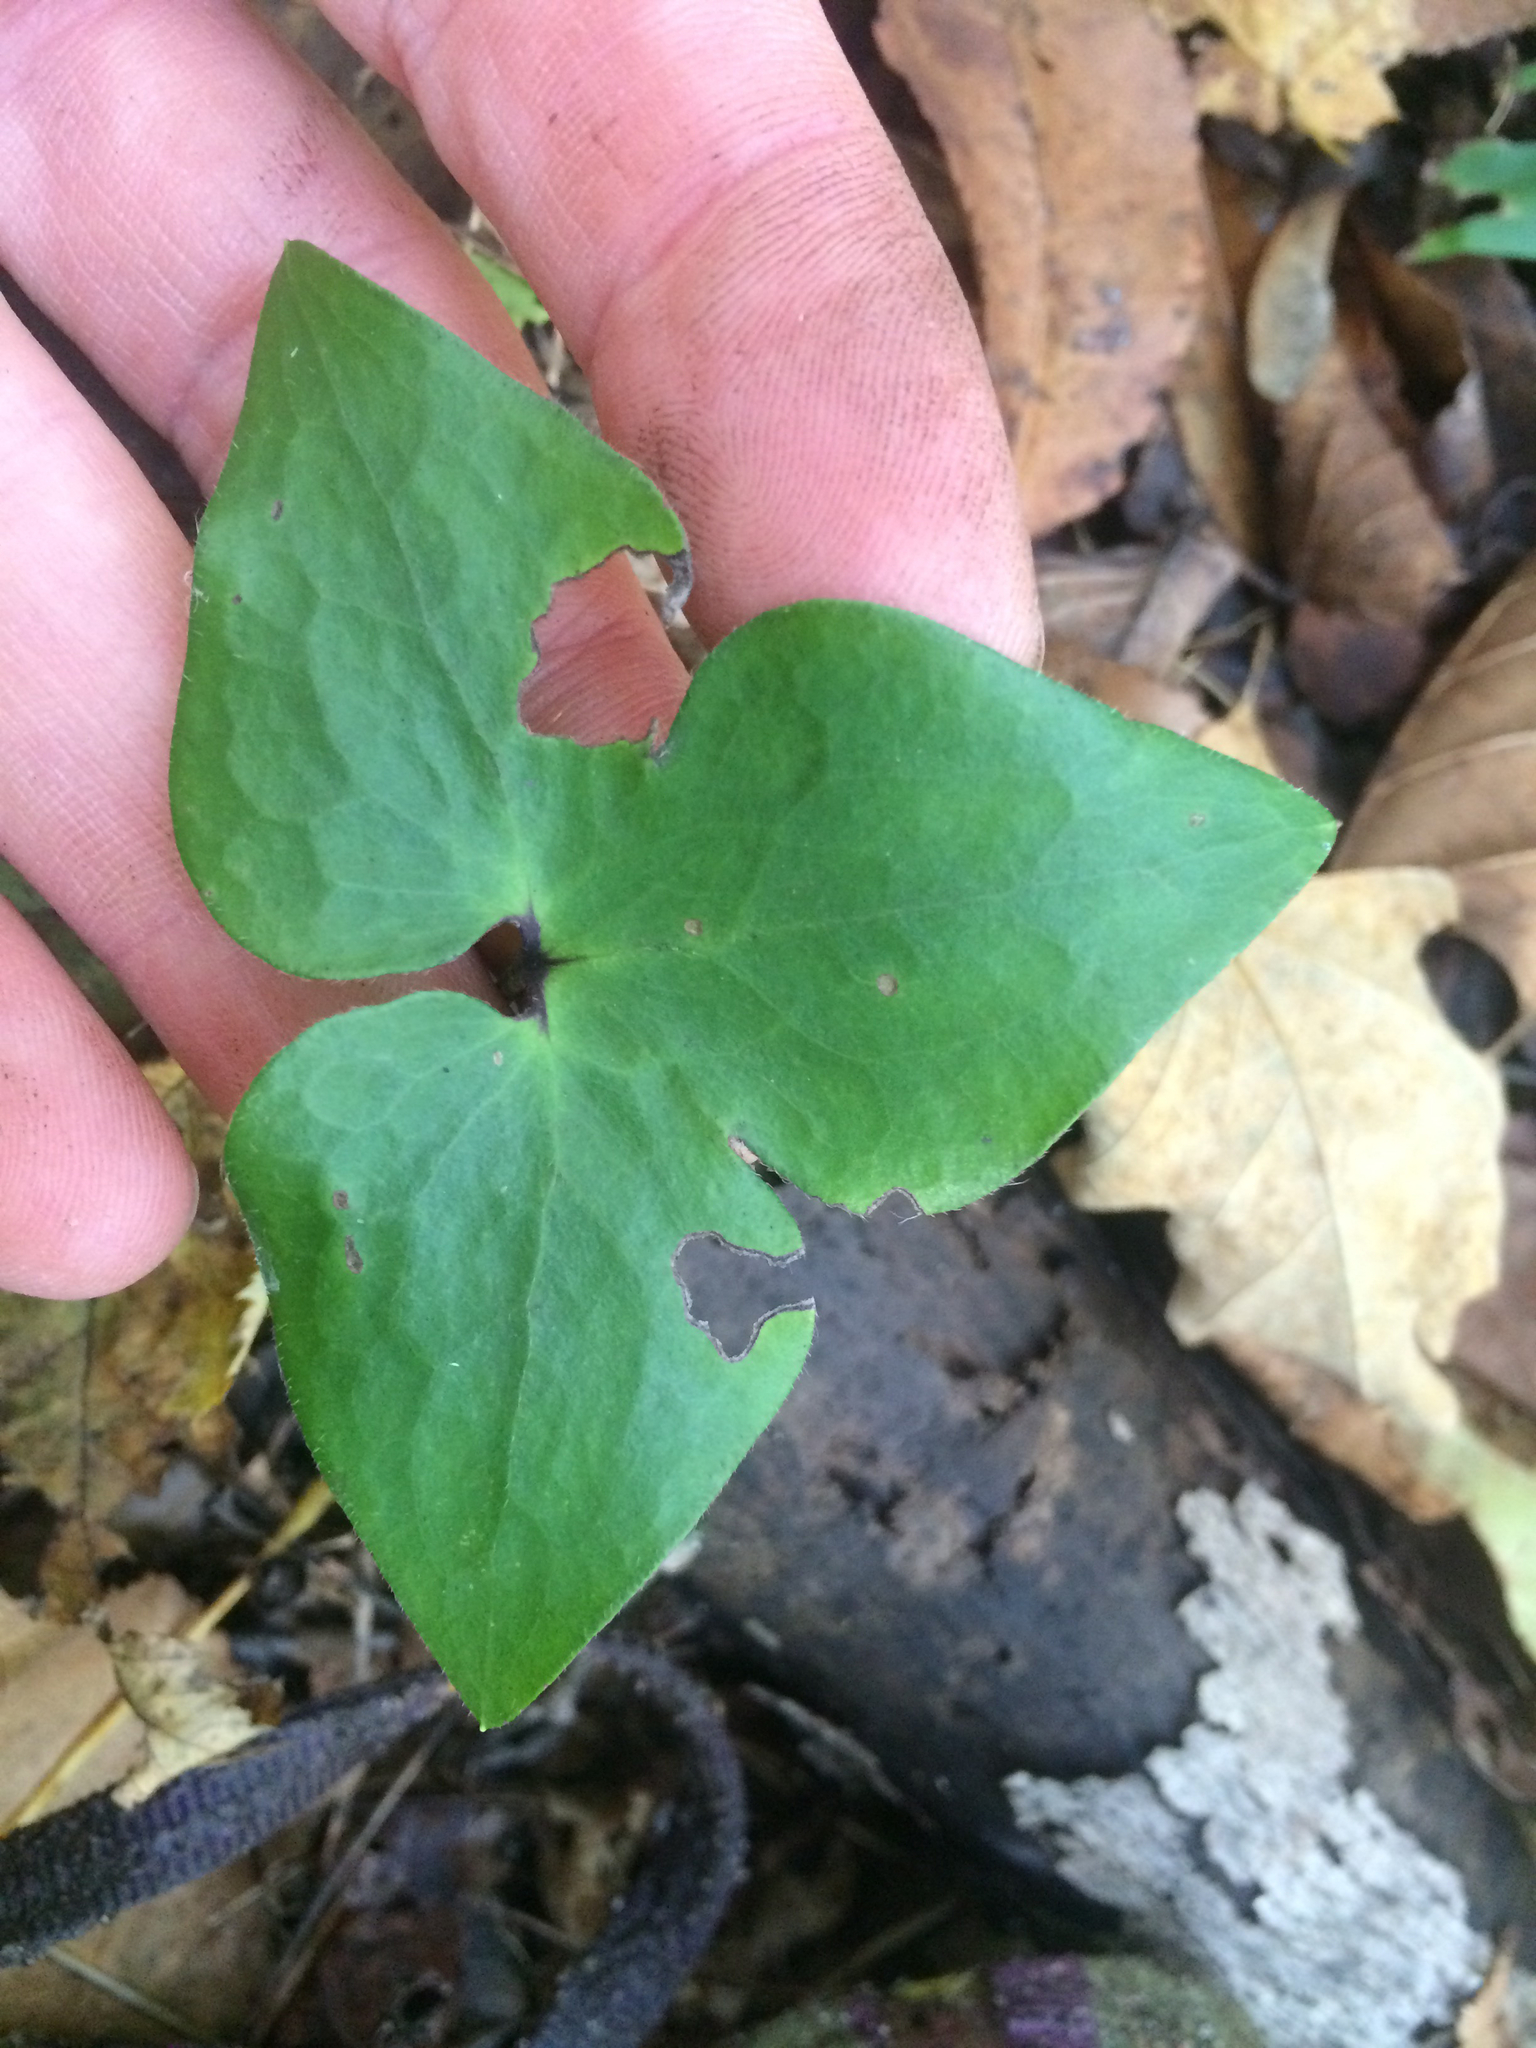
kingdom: Plantae
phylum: Tracheophyta
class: Magnoliopsida
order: Ranunculales
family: Ranunculaceae
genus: Hepatica
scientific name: Hepatica acutiloba
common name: Sharp-lobed hepatica
